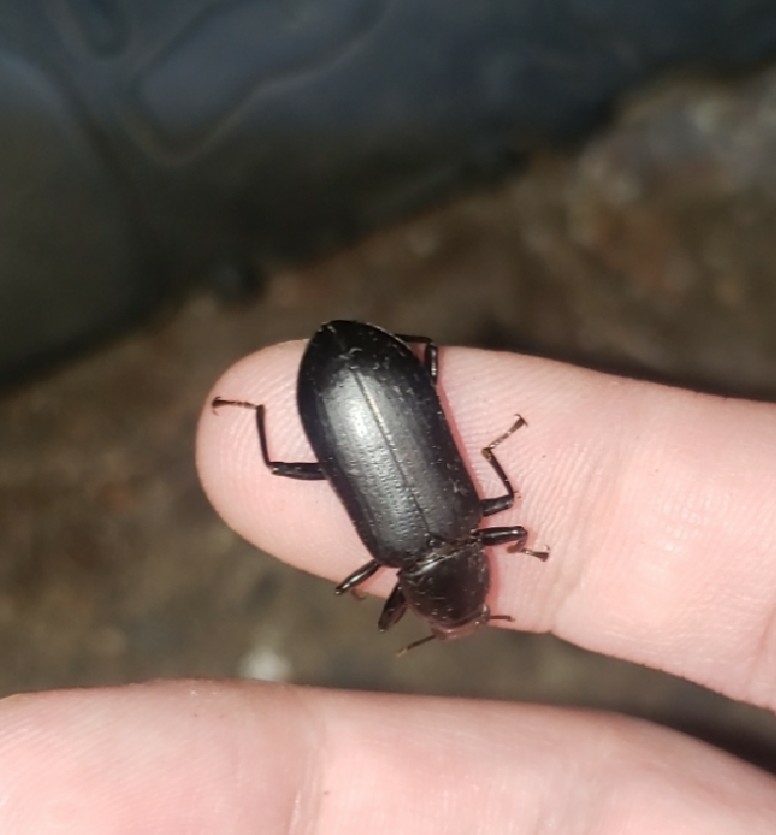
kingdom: Animalia
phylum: Arthropoda
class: Insecta
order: Coleoptera
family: Tenebrionidae
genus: Alobates
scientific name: Alobates
